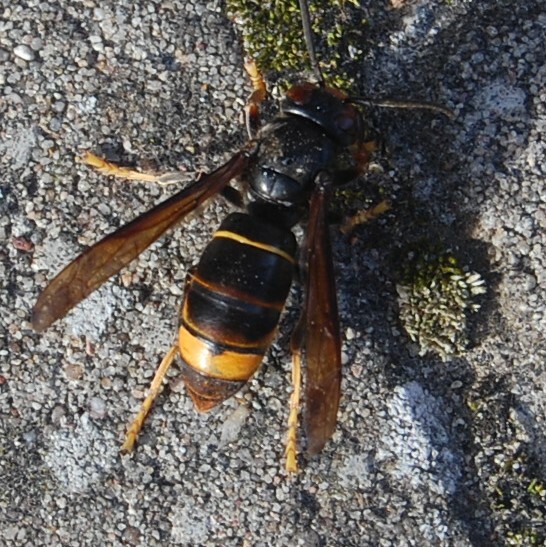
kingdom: Animalia
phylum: Arthropoda
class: Insecta
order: Hymenoptera
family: Vespidae
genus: Vespa
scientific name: Vespa velutina
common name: Asian hornet
